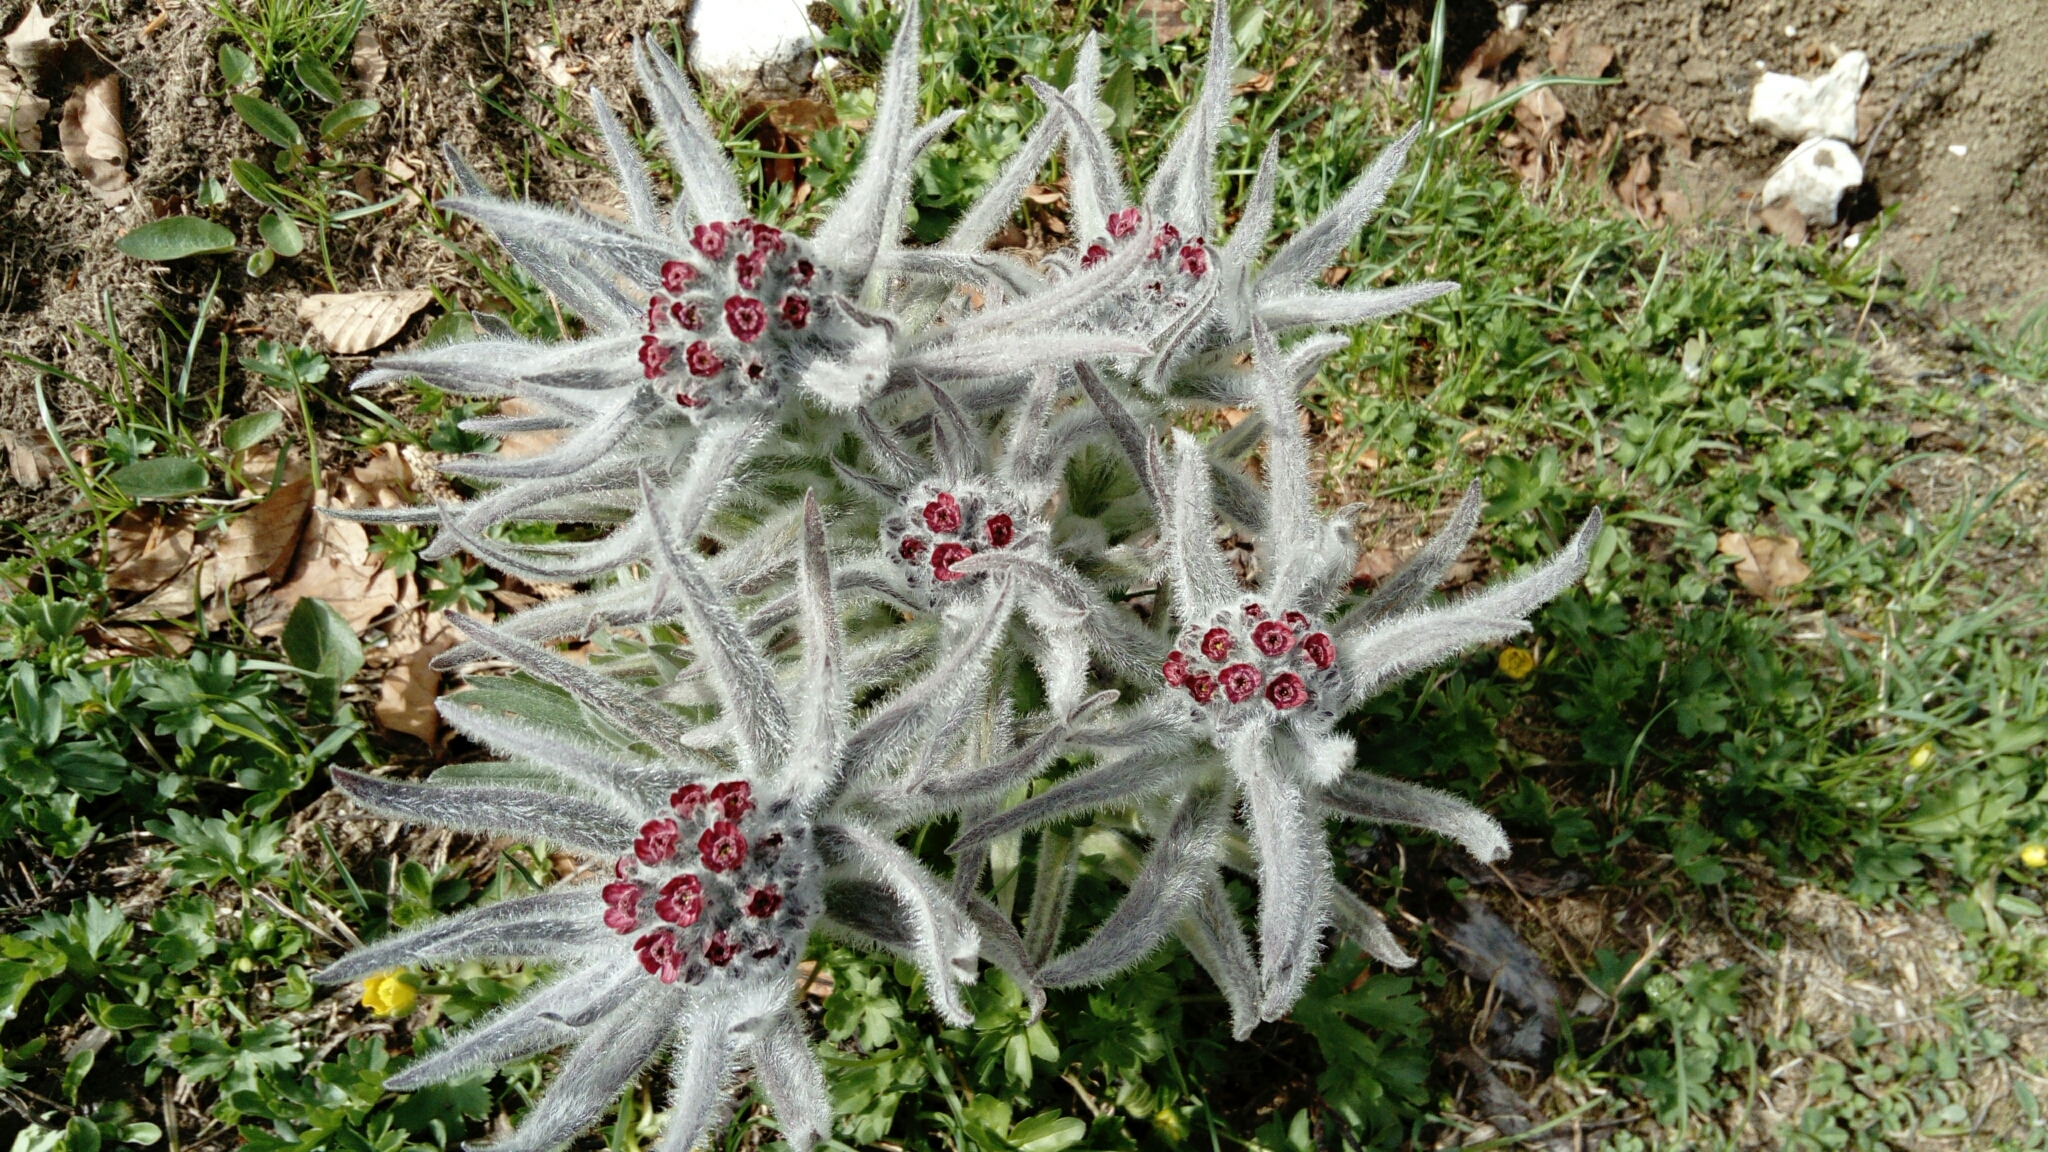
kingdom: Plantae
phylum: Tracheophyta
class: Magnoliopsida
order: Boraginales
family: Boraginaceae
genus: Rindera
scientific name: Rindera magellensis
